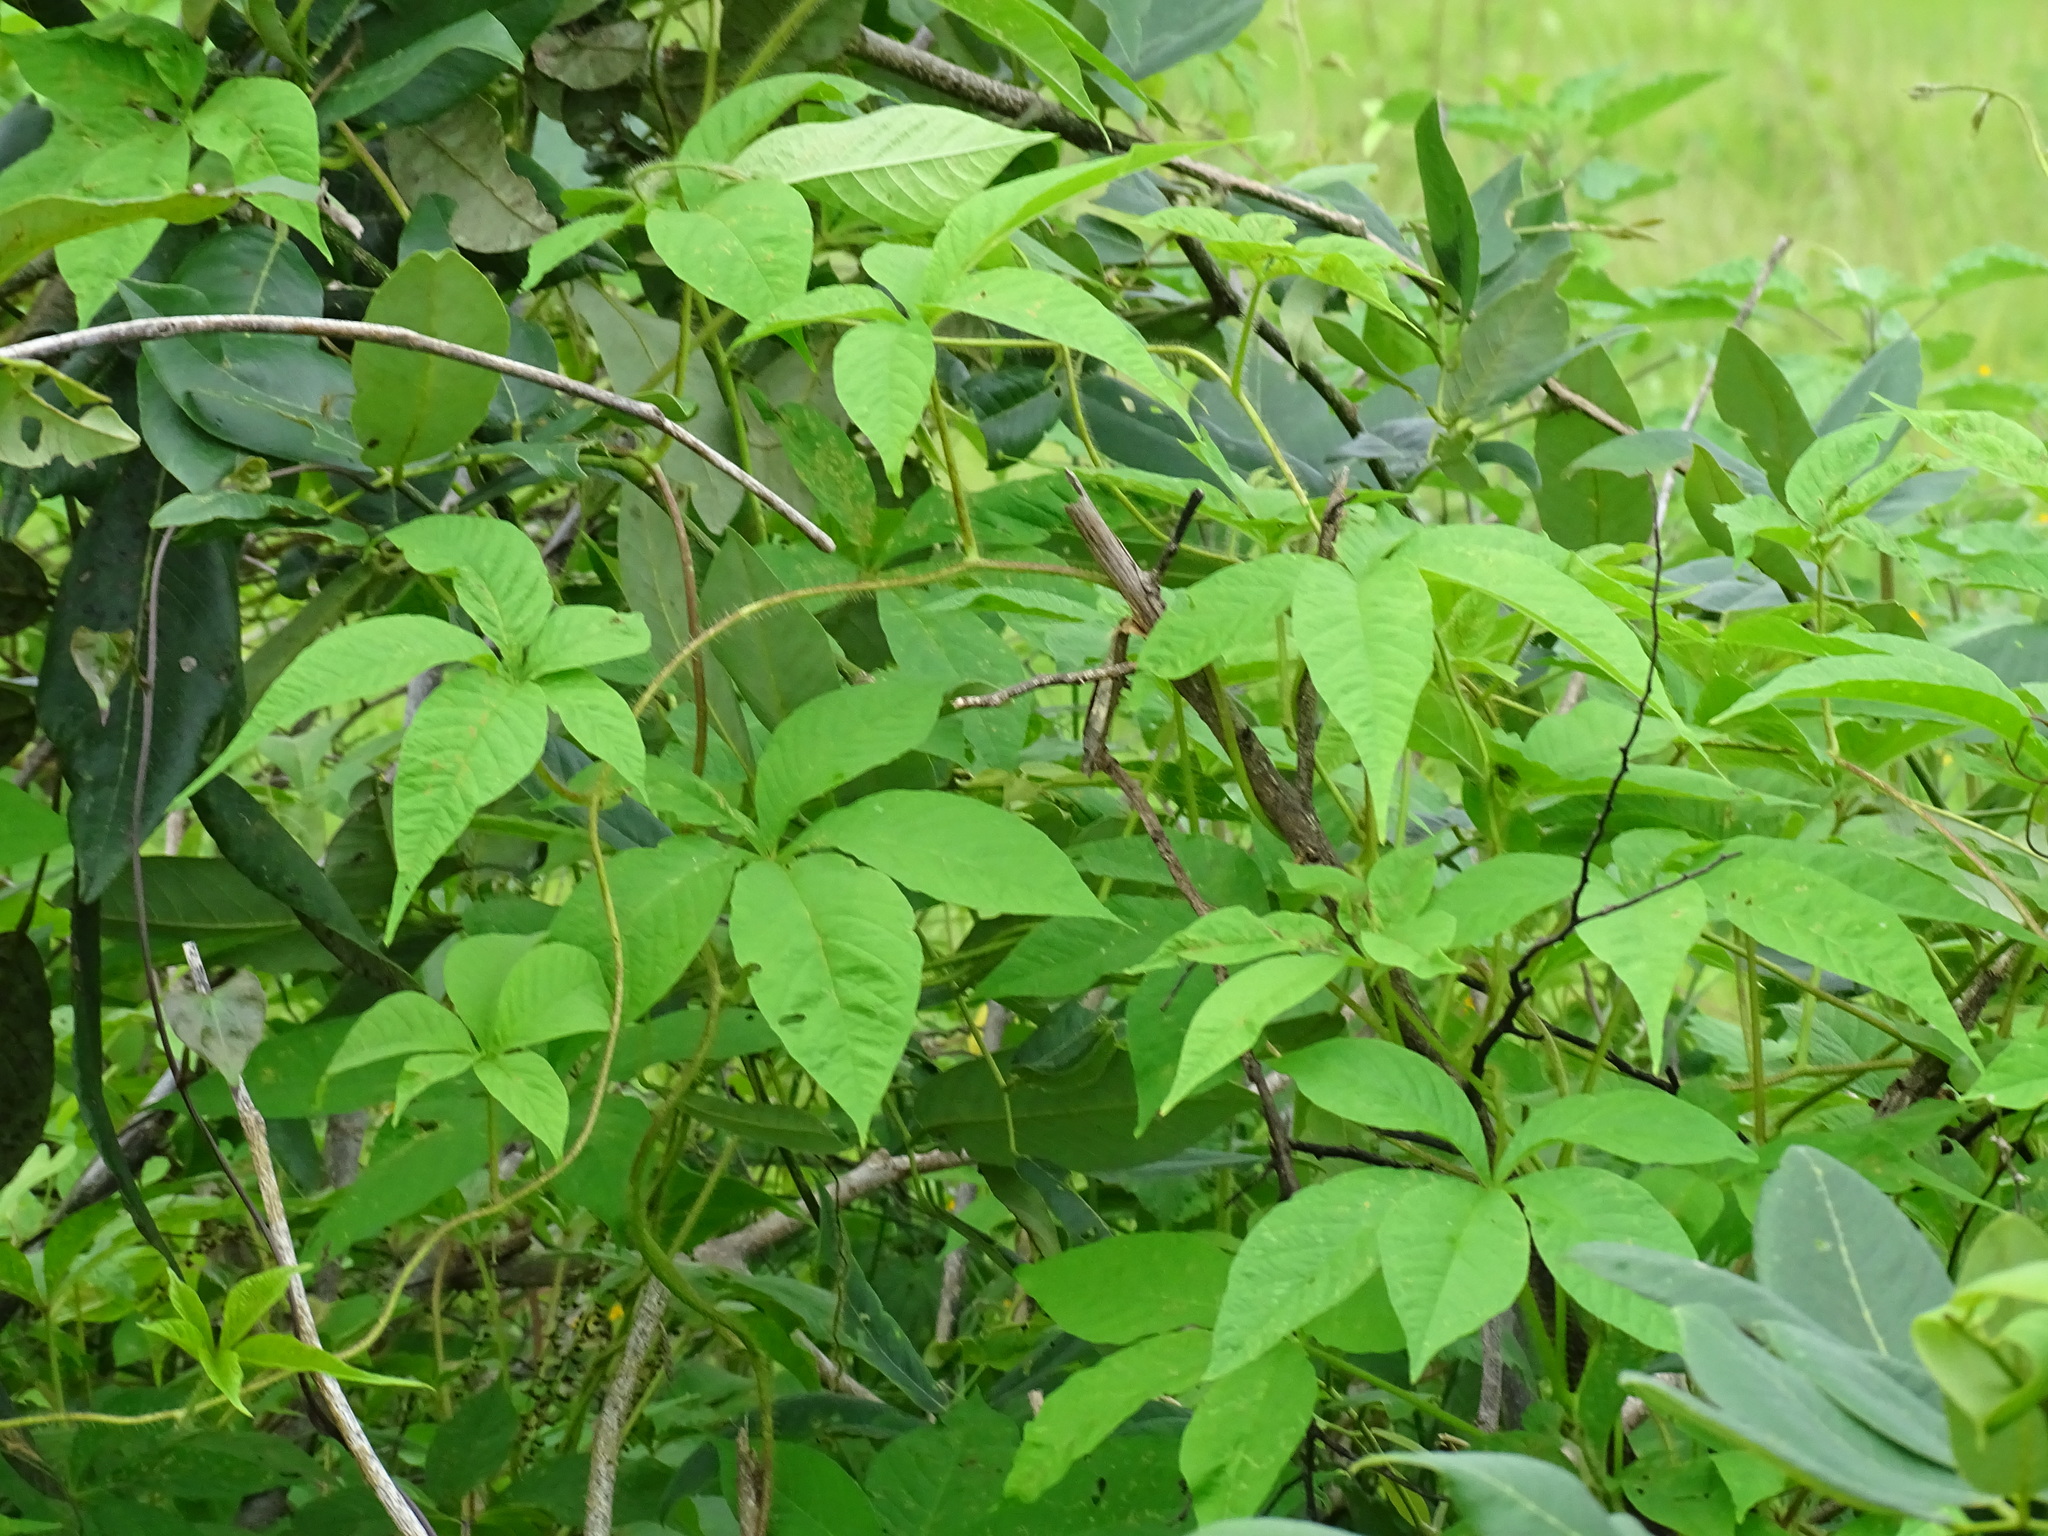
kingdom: Plantae
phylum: Tracheophyta
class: Magnoliopsida
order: Solanales
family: Convolvulaceae
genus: Distimake
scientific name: Distimake aegyptius
